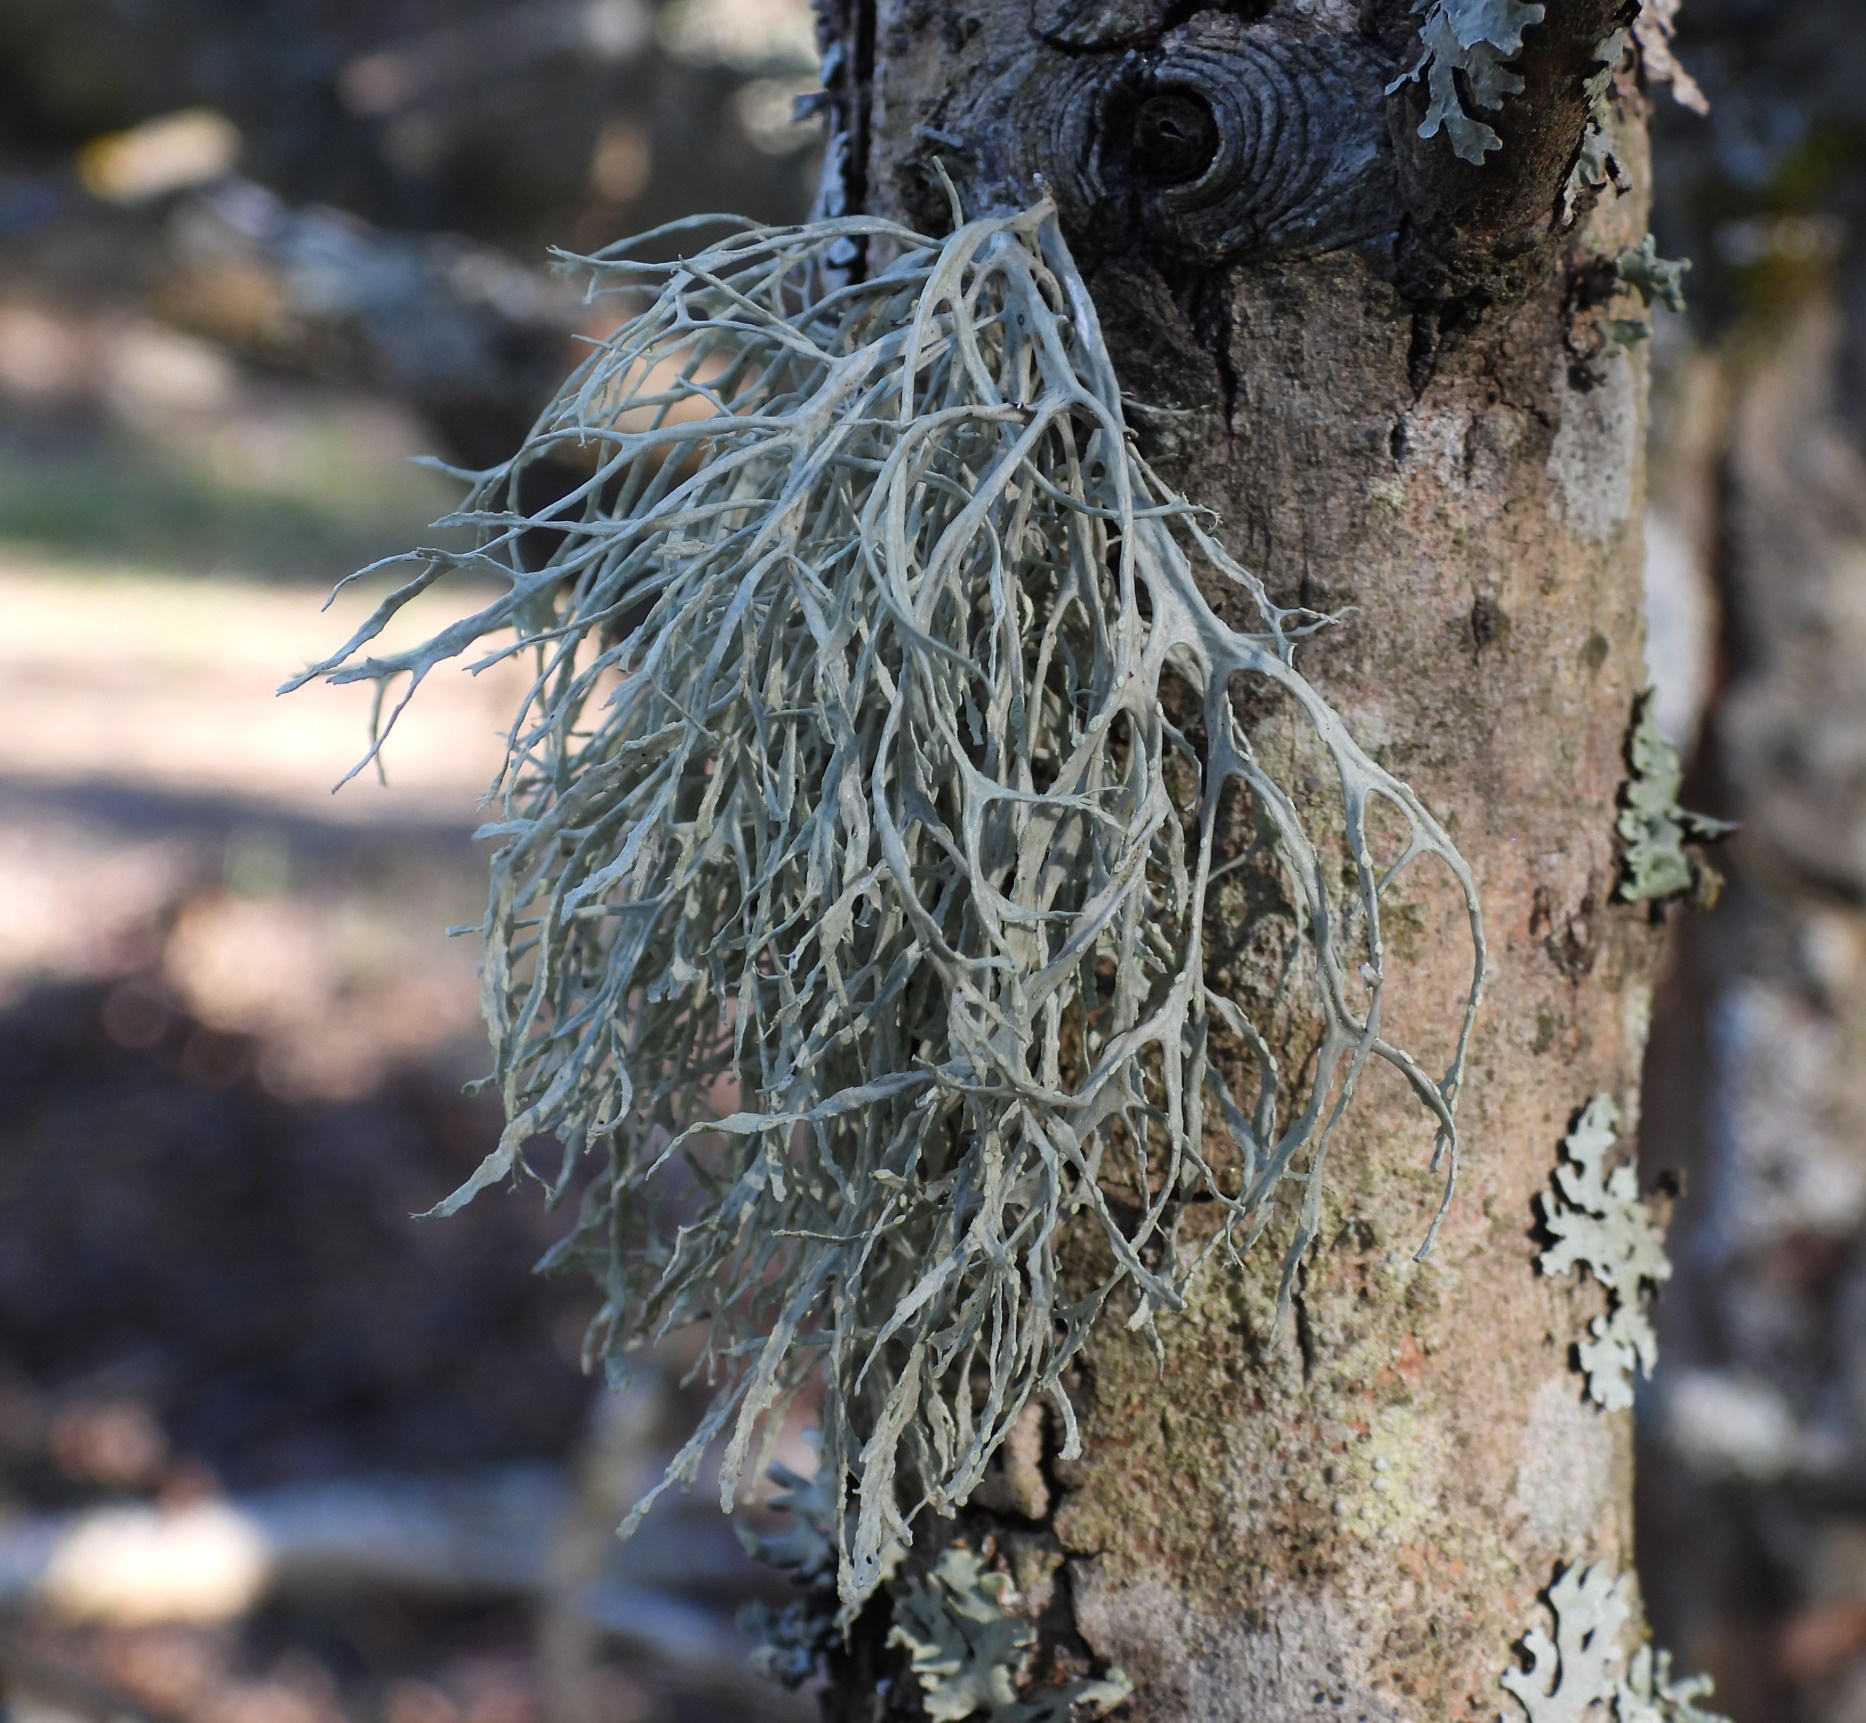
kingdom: Fungi
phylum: Ascomycota
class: Lecanoromycetes
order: Lecanorales
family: Ramalinaceae
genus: Ramalina
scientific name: Ramalina farinacea
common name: Farinose cartilage lichen
